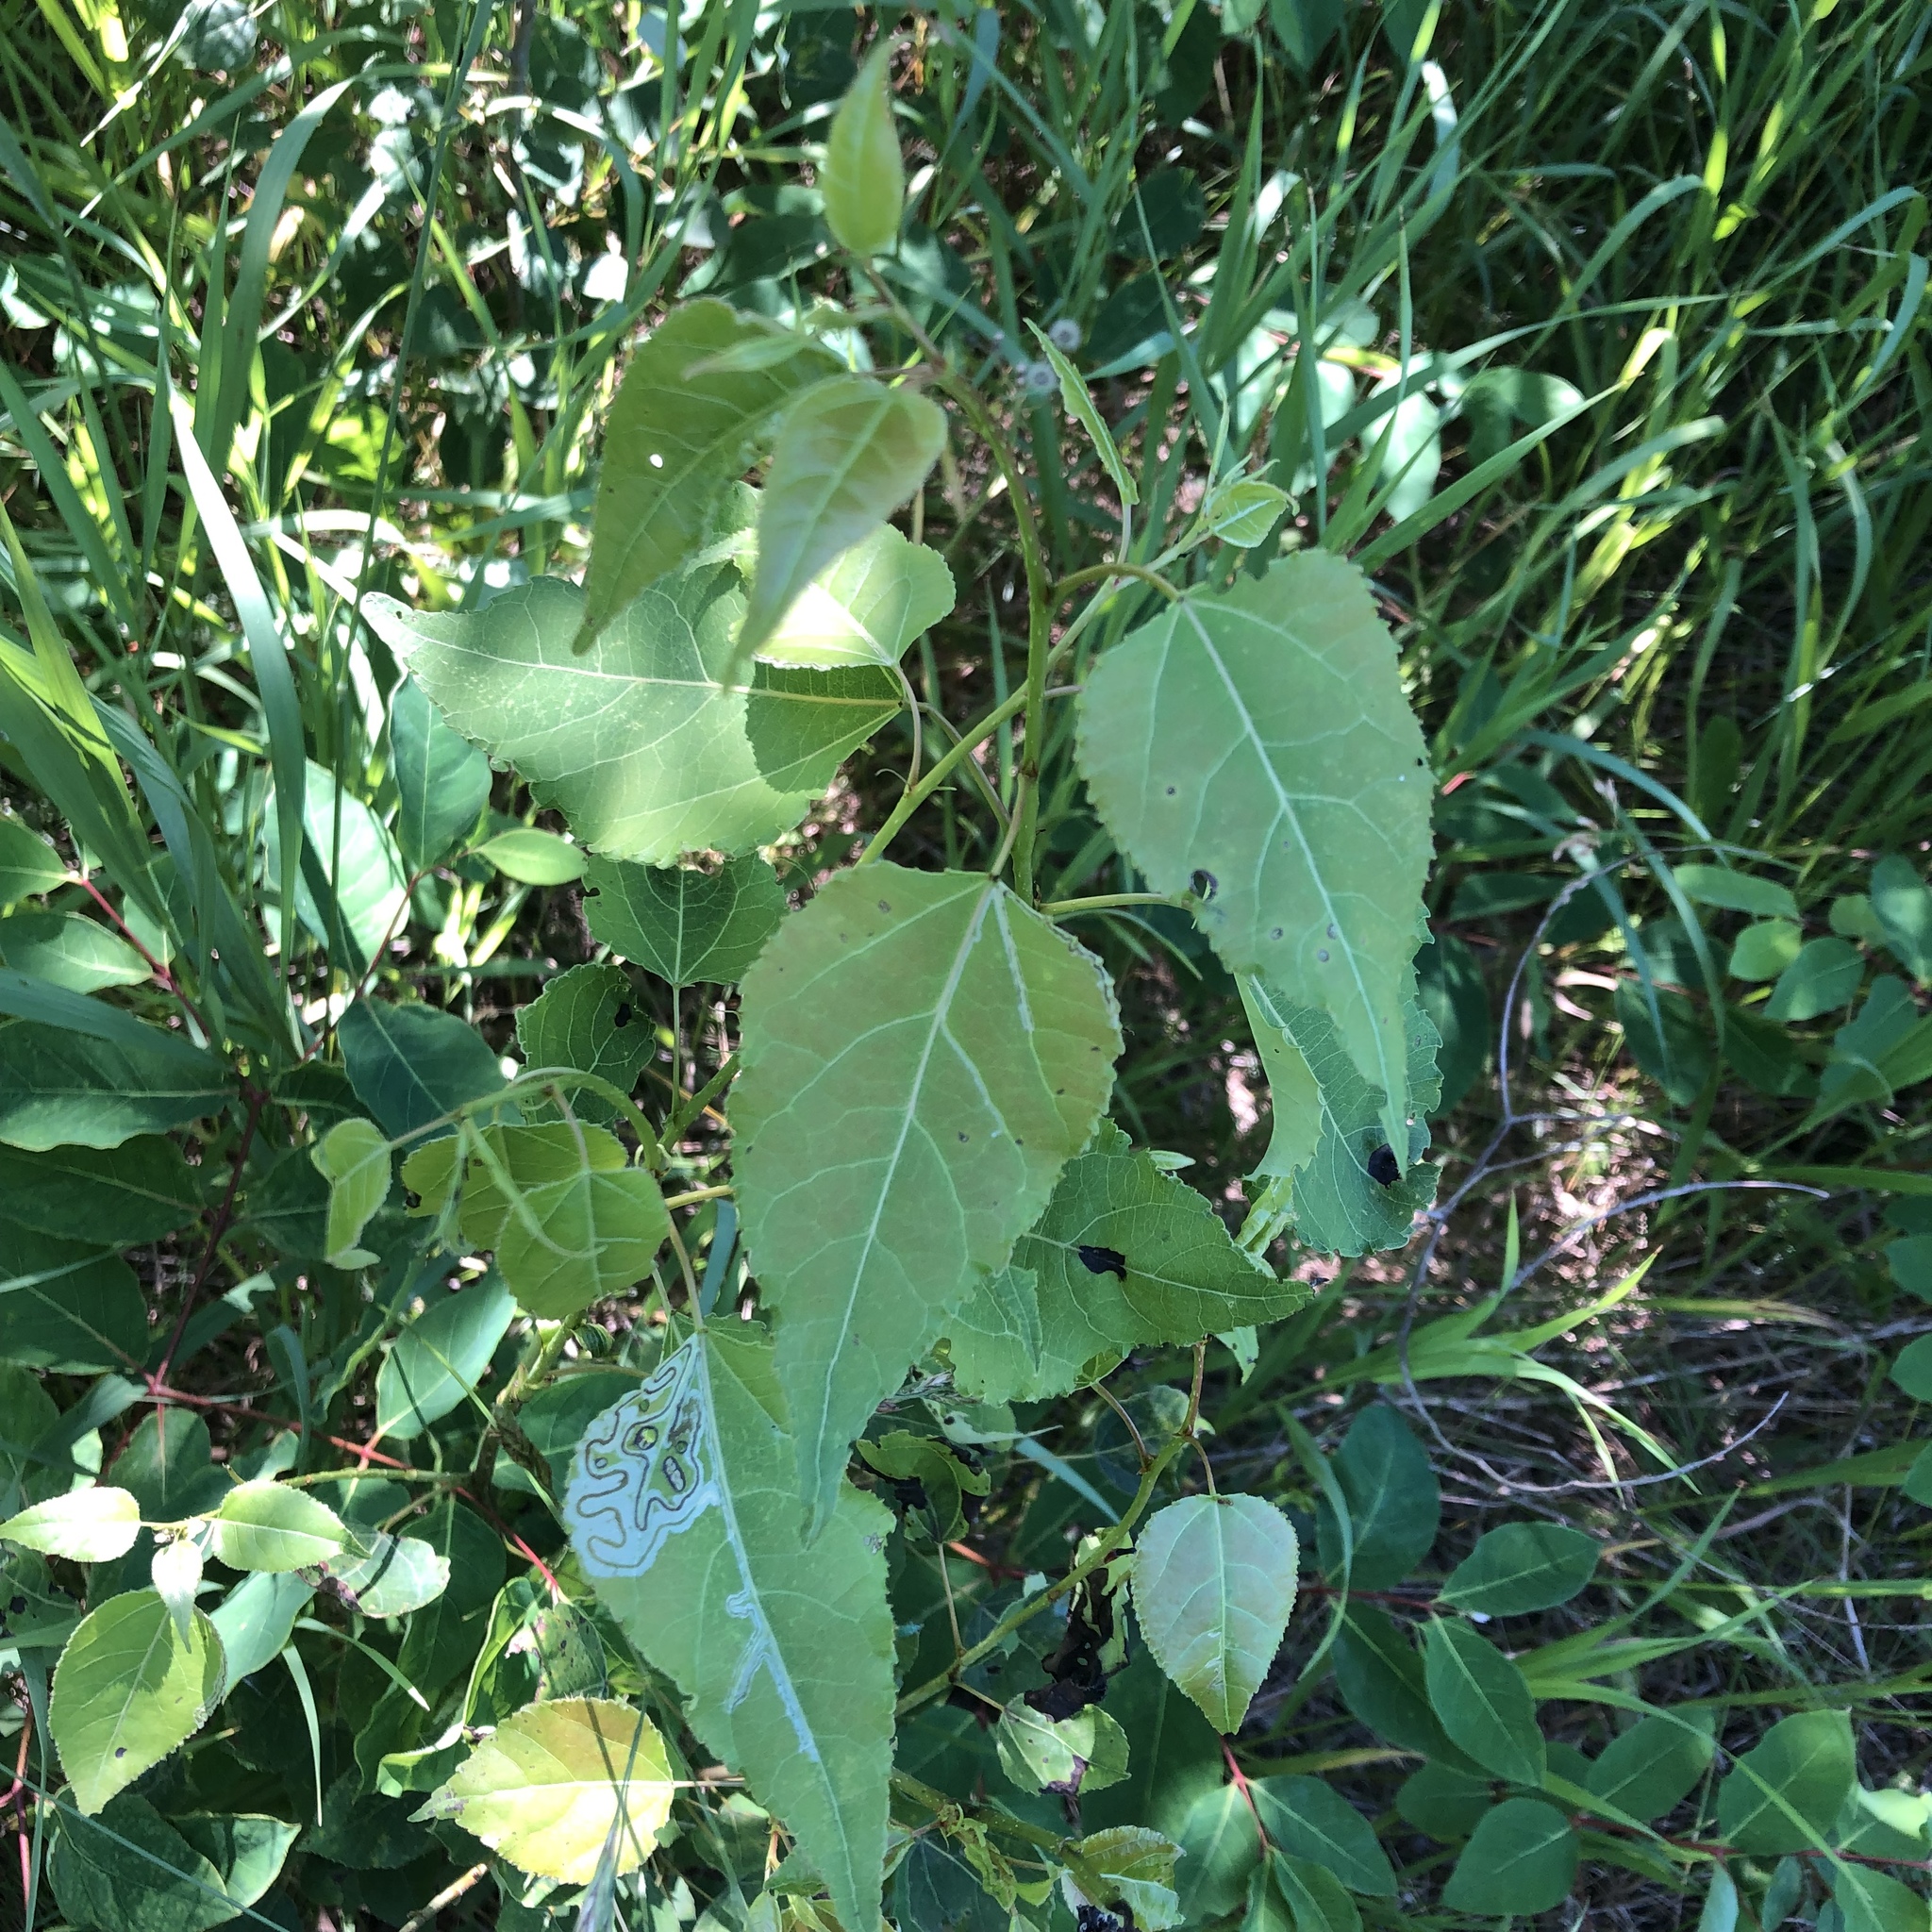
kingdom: Animalia
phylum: Arthropoda
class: Insecta
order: Lepidoptera
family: Gracillariidae
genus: Phyllocnistis
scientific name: Phyllocnistis populiella
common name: Aspen serpentine leafminer moth
